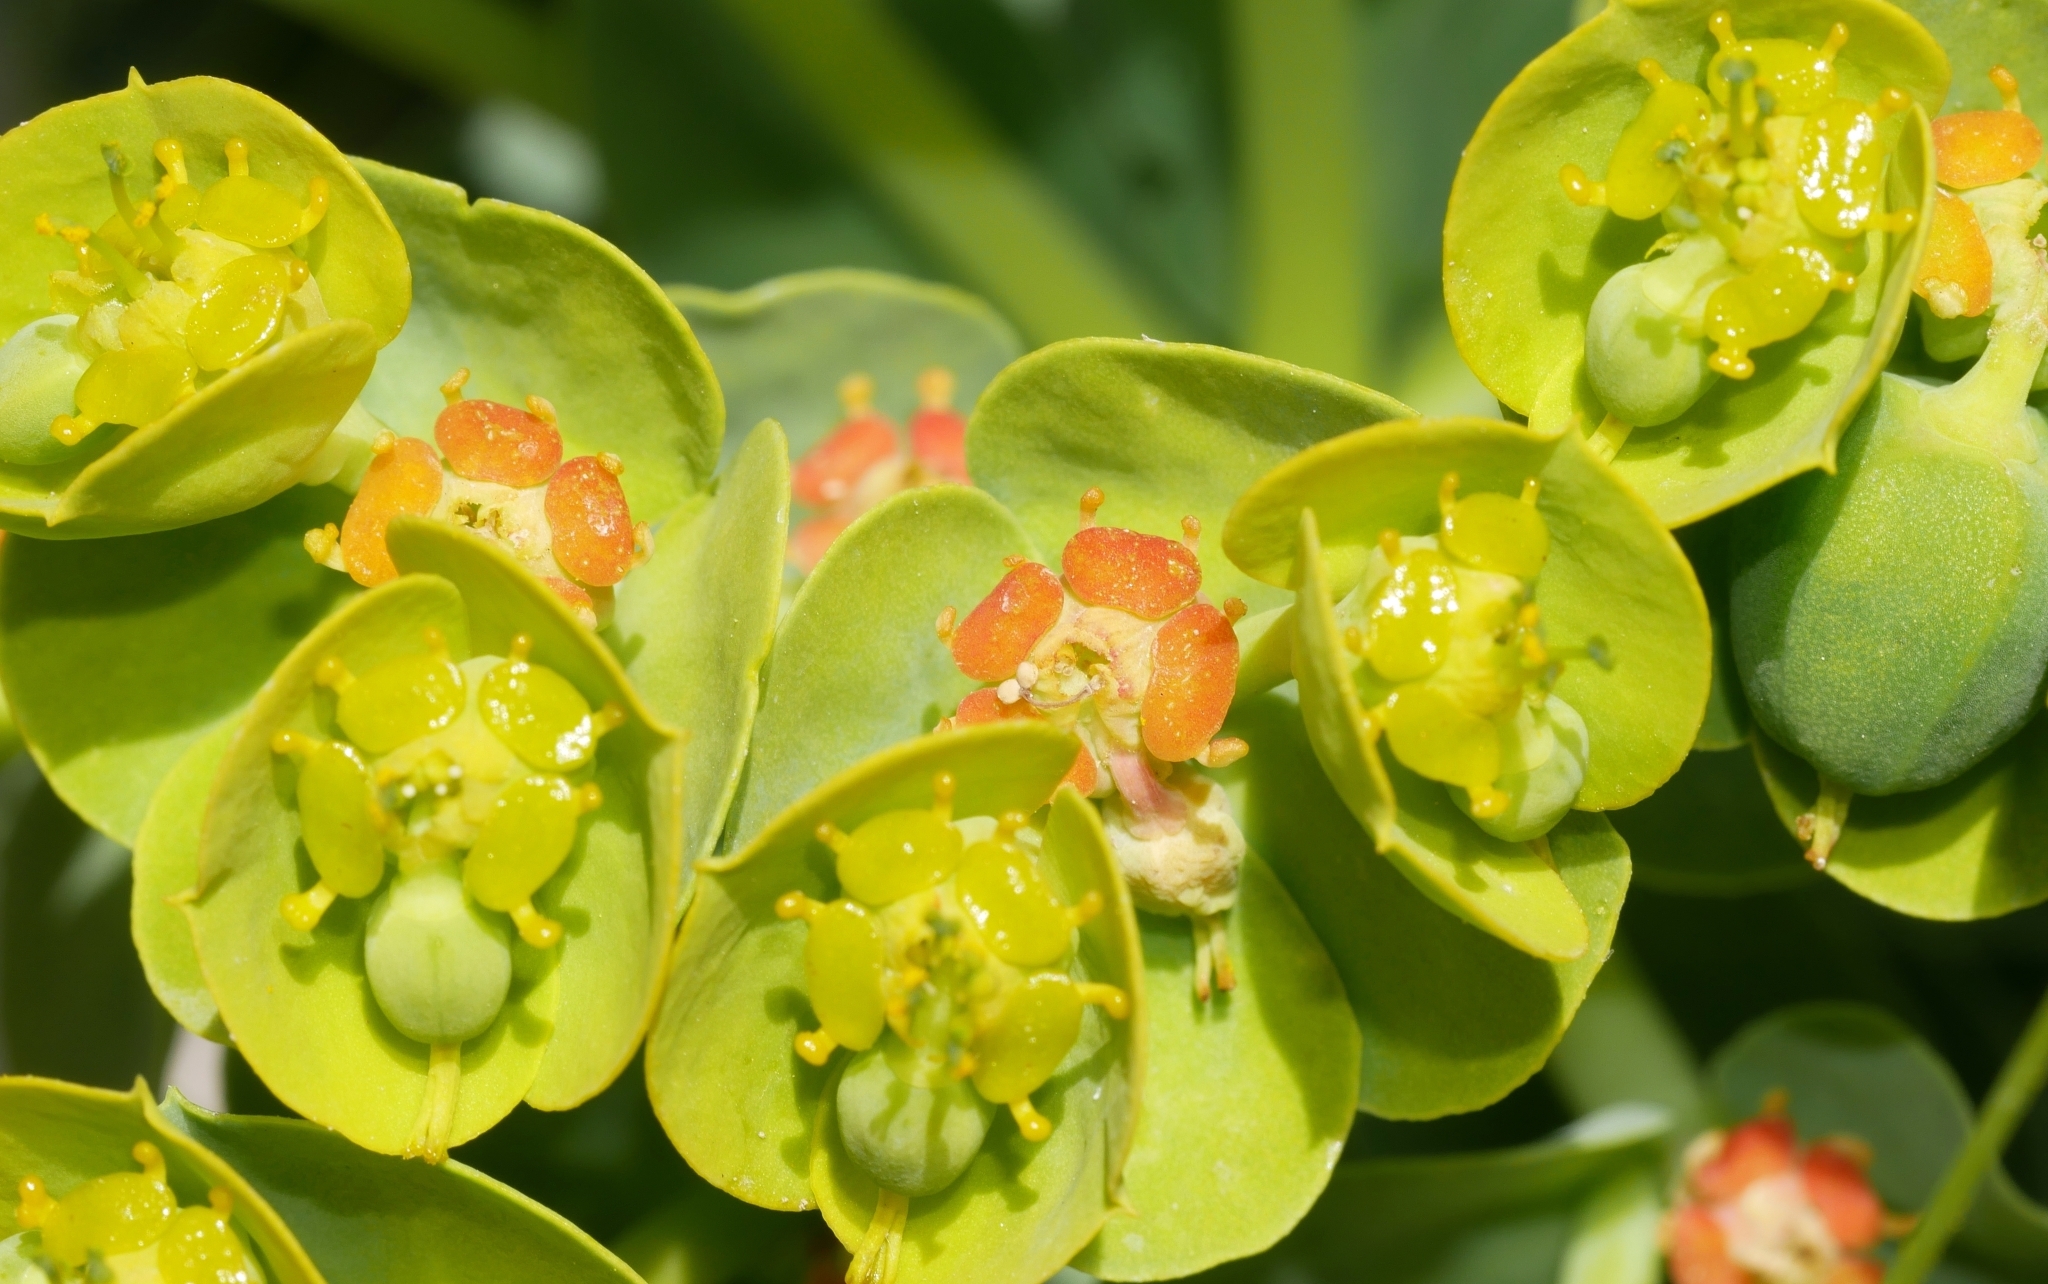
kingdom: Plantae
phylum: Tracheophyta
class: Magnoliopsida
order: Malpighiales
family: Euphorbiaceae
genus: Euphorbia
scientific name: Euphorbia myrsinites
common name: Myrtle spurge
